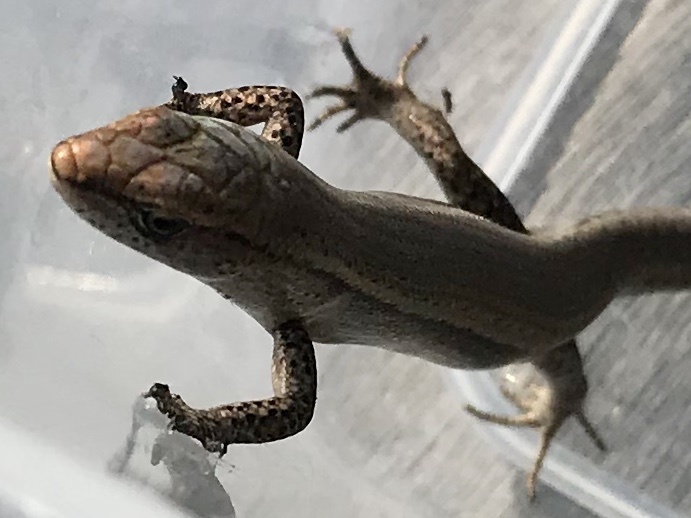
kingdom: Animalia
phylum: Chordata
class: Squamata
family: Scincidae
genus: Lampropholis
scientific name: Lampropholis delicata
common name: Plague skink
